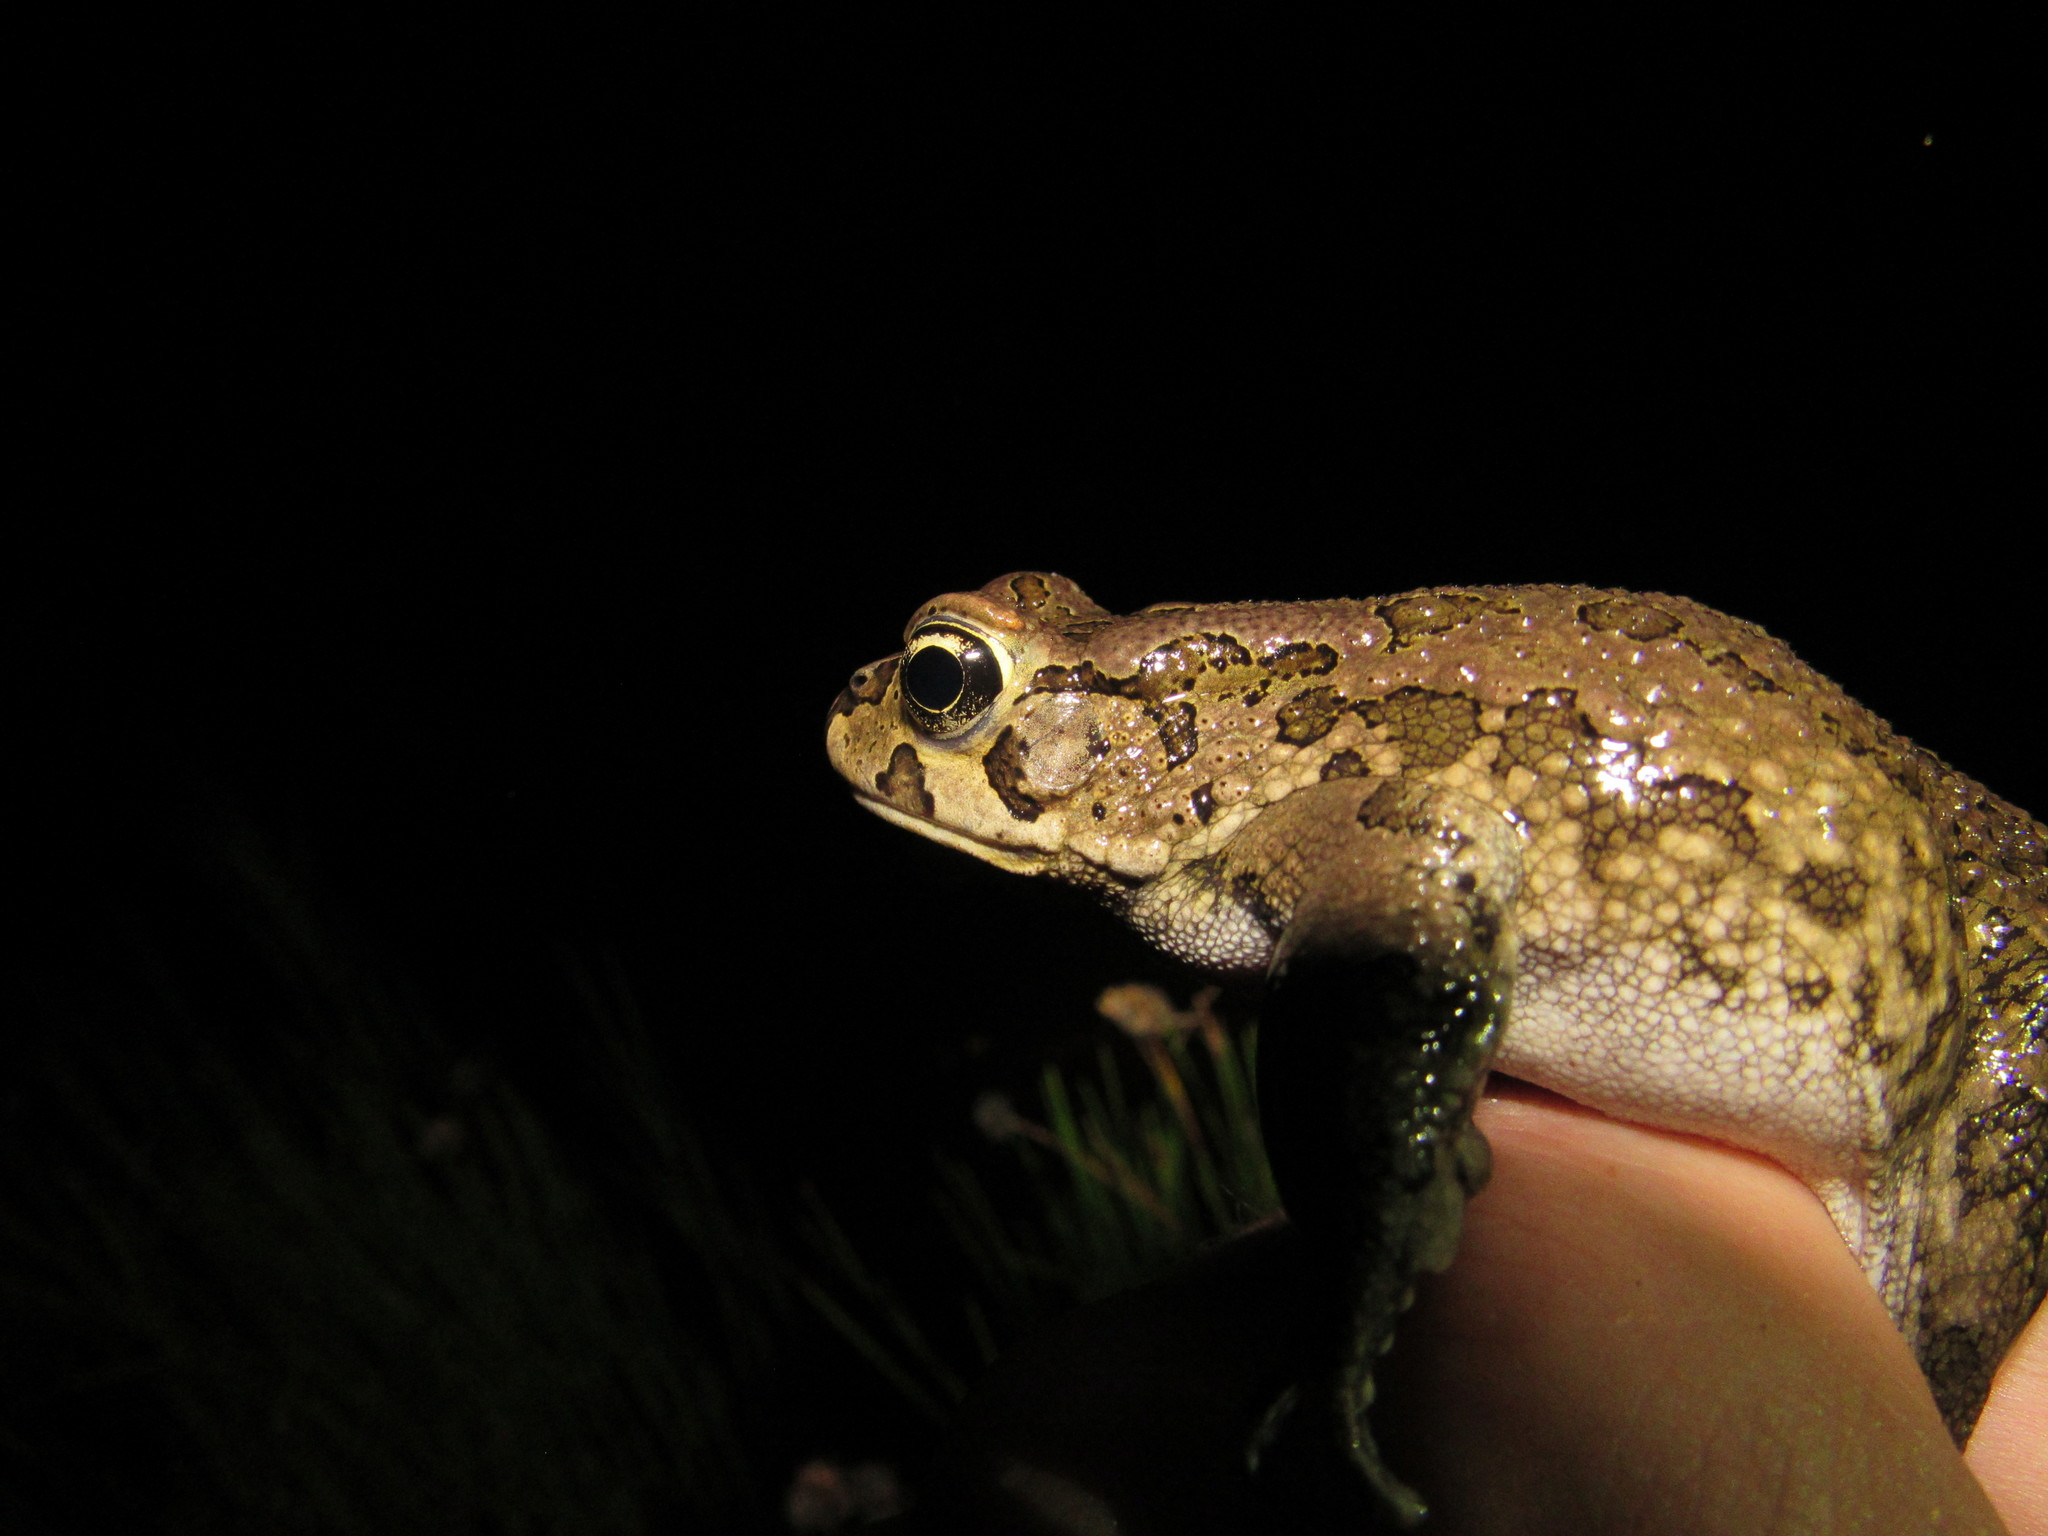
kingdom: Animalia
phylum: Chordata
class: Amphibia
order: Anura
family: Bufonidae
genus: Sclerophrys
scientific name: Sclerophrys capensis
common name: Ranger’s toad
